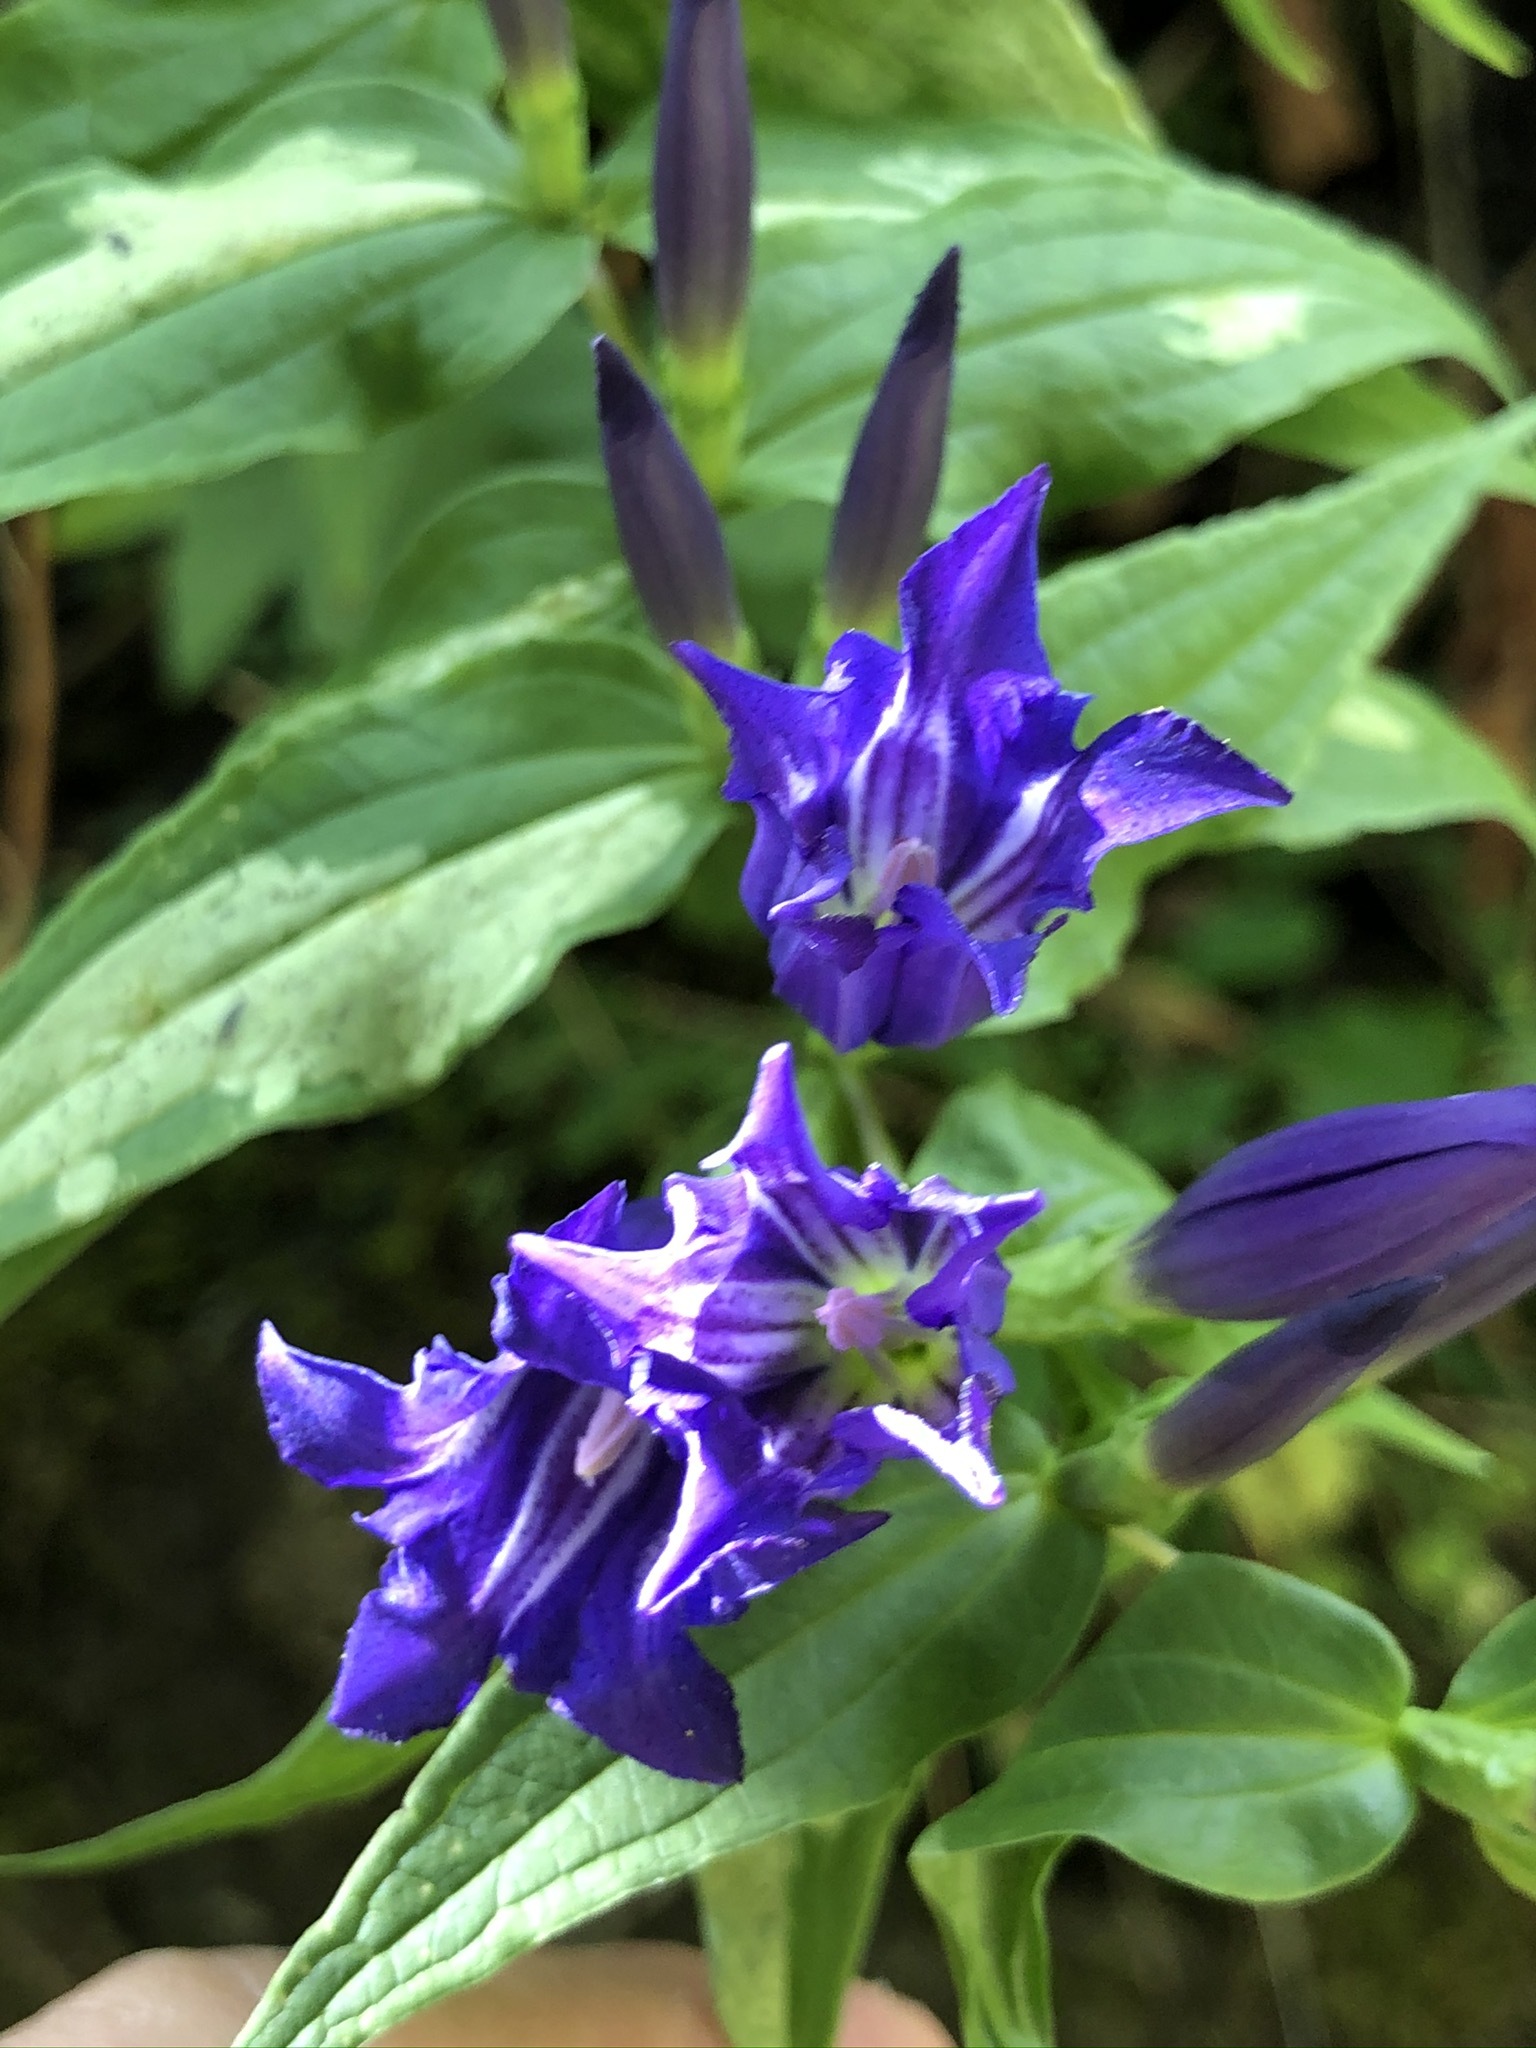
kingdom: Plantae
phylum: Tracheophyta
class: Magnoliopsida
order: Gentianales
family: Gentianaceae
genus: Gentiana
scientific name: Gentiana asclepiadea
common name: Willow gentian
